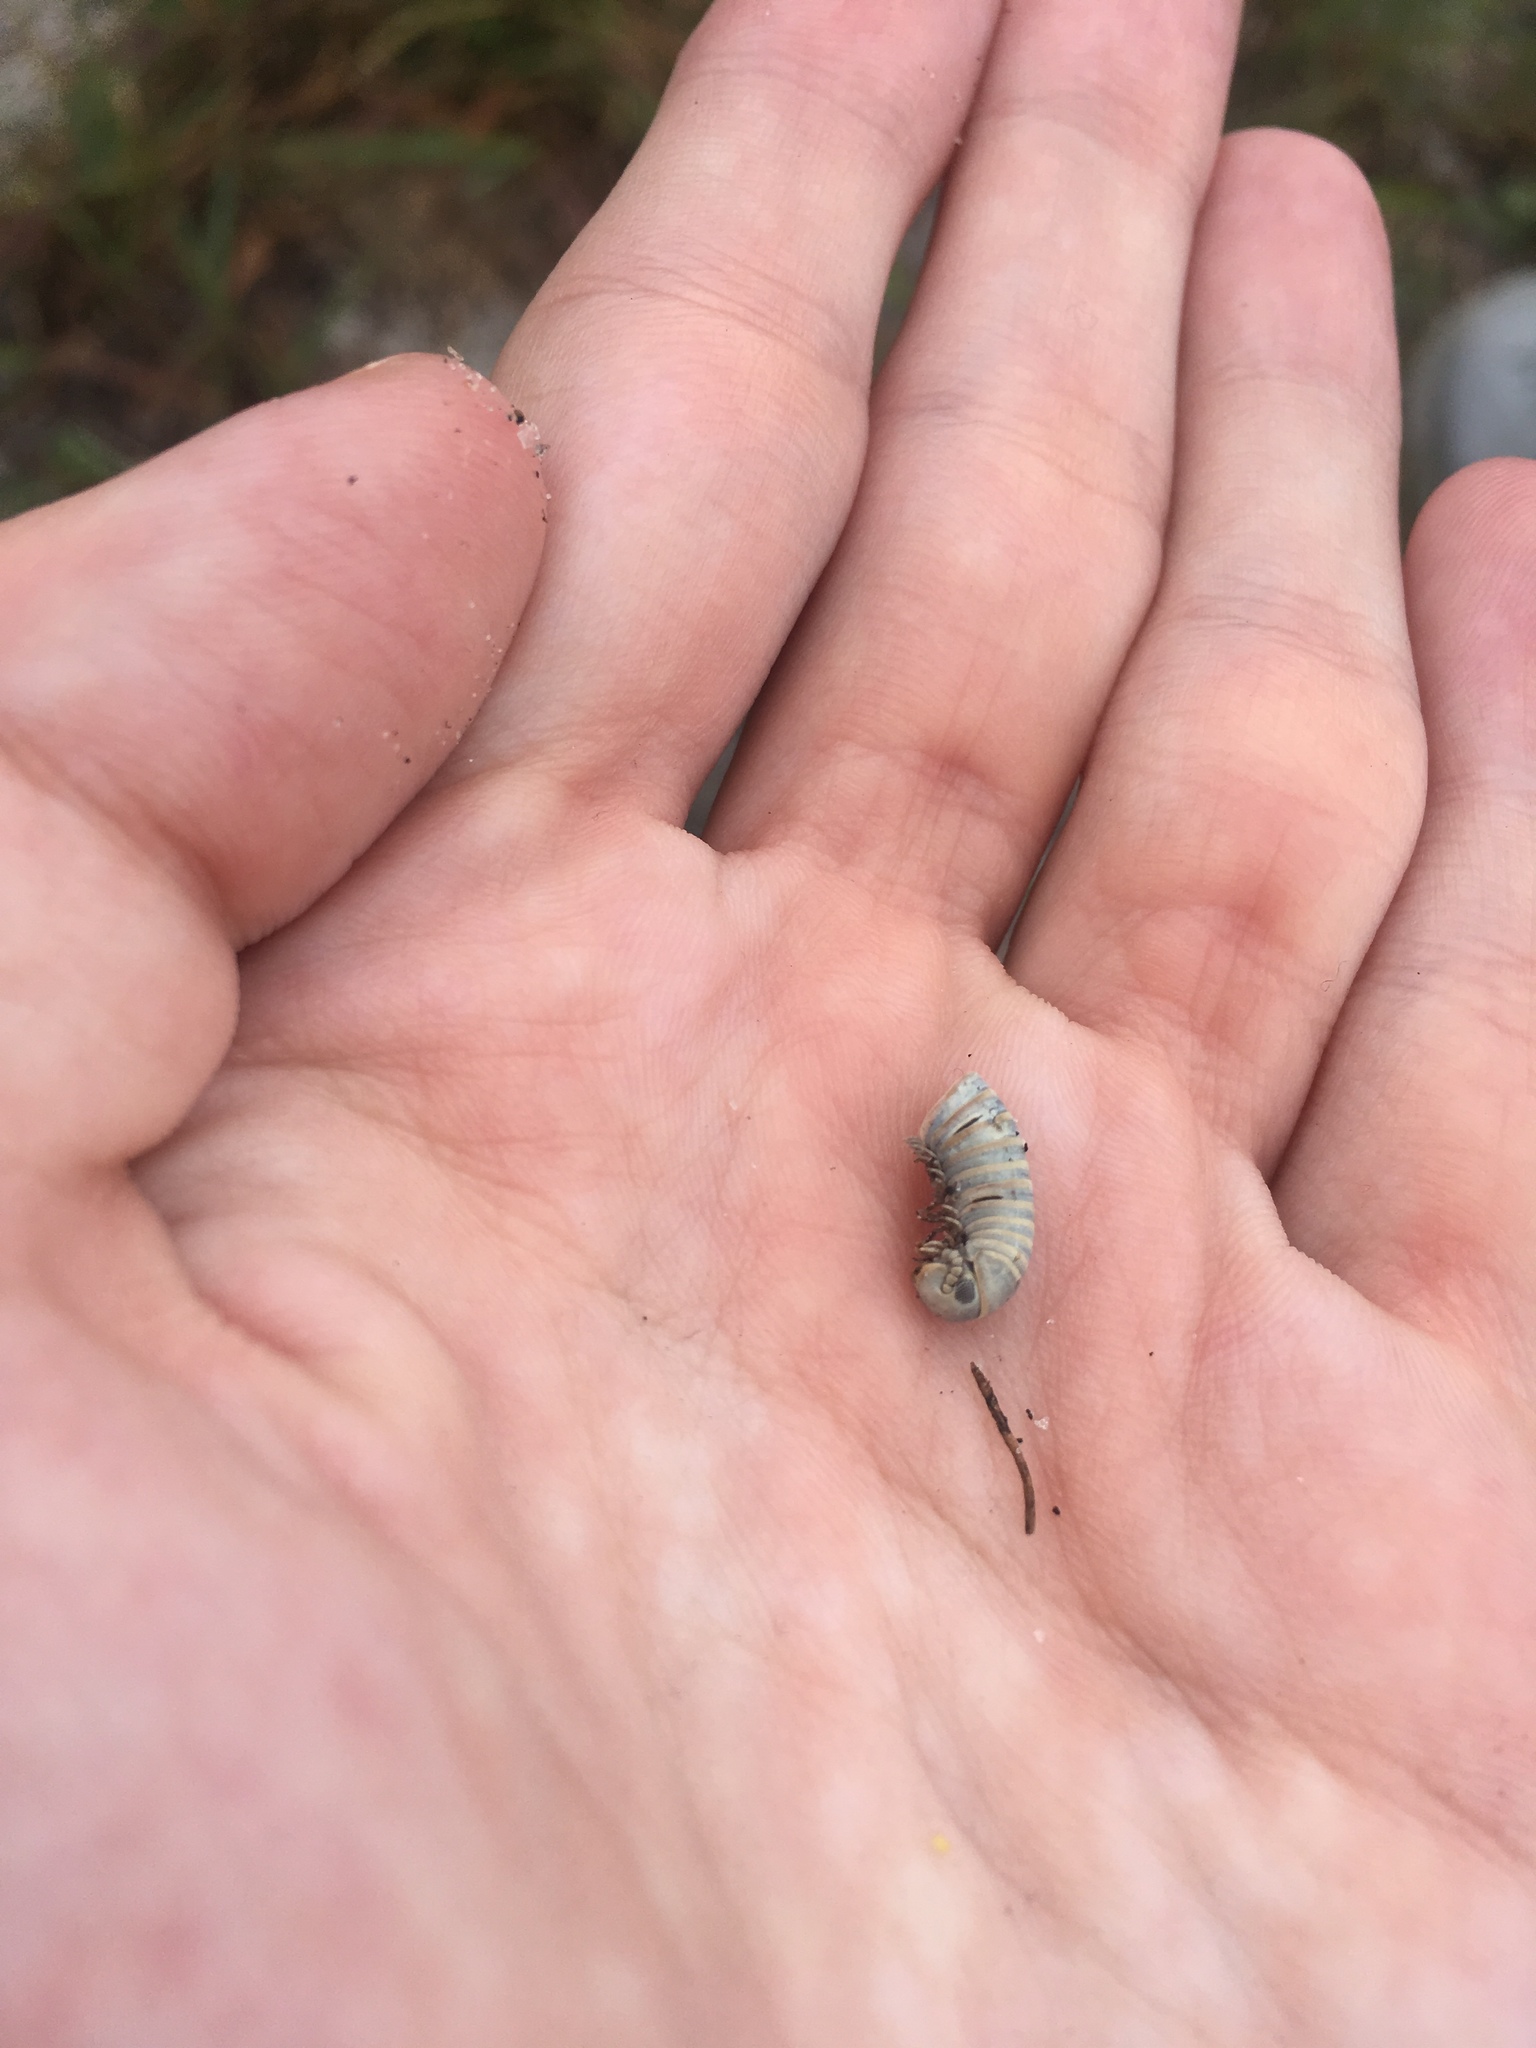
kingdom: Animalia
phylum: Arthropoda
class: Diplopoda
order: Spirobolida
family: Rhinocricidae
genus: Anadenobolus
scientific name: Anadenobolus monilicornis
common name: Caribbean millipede
